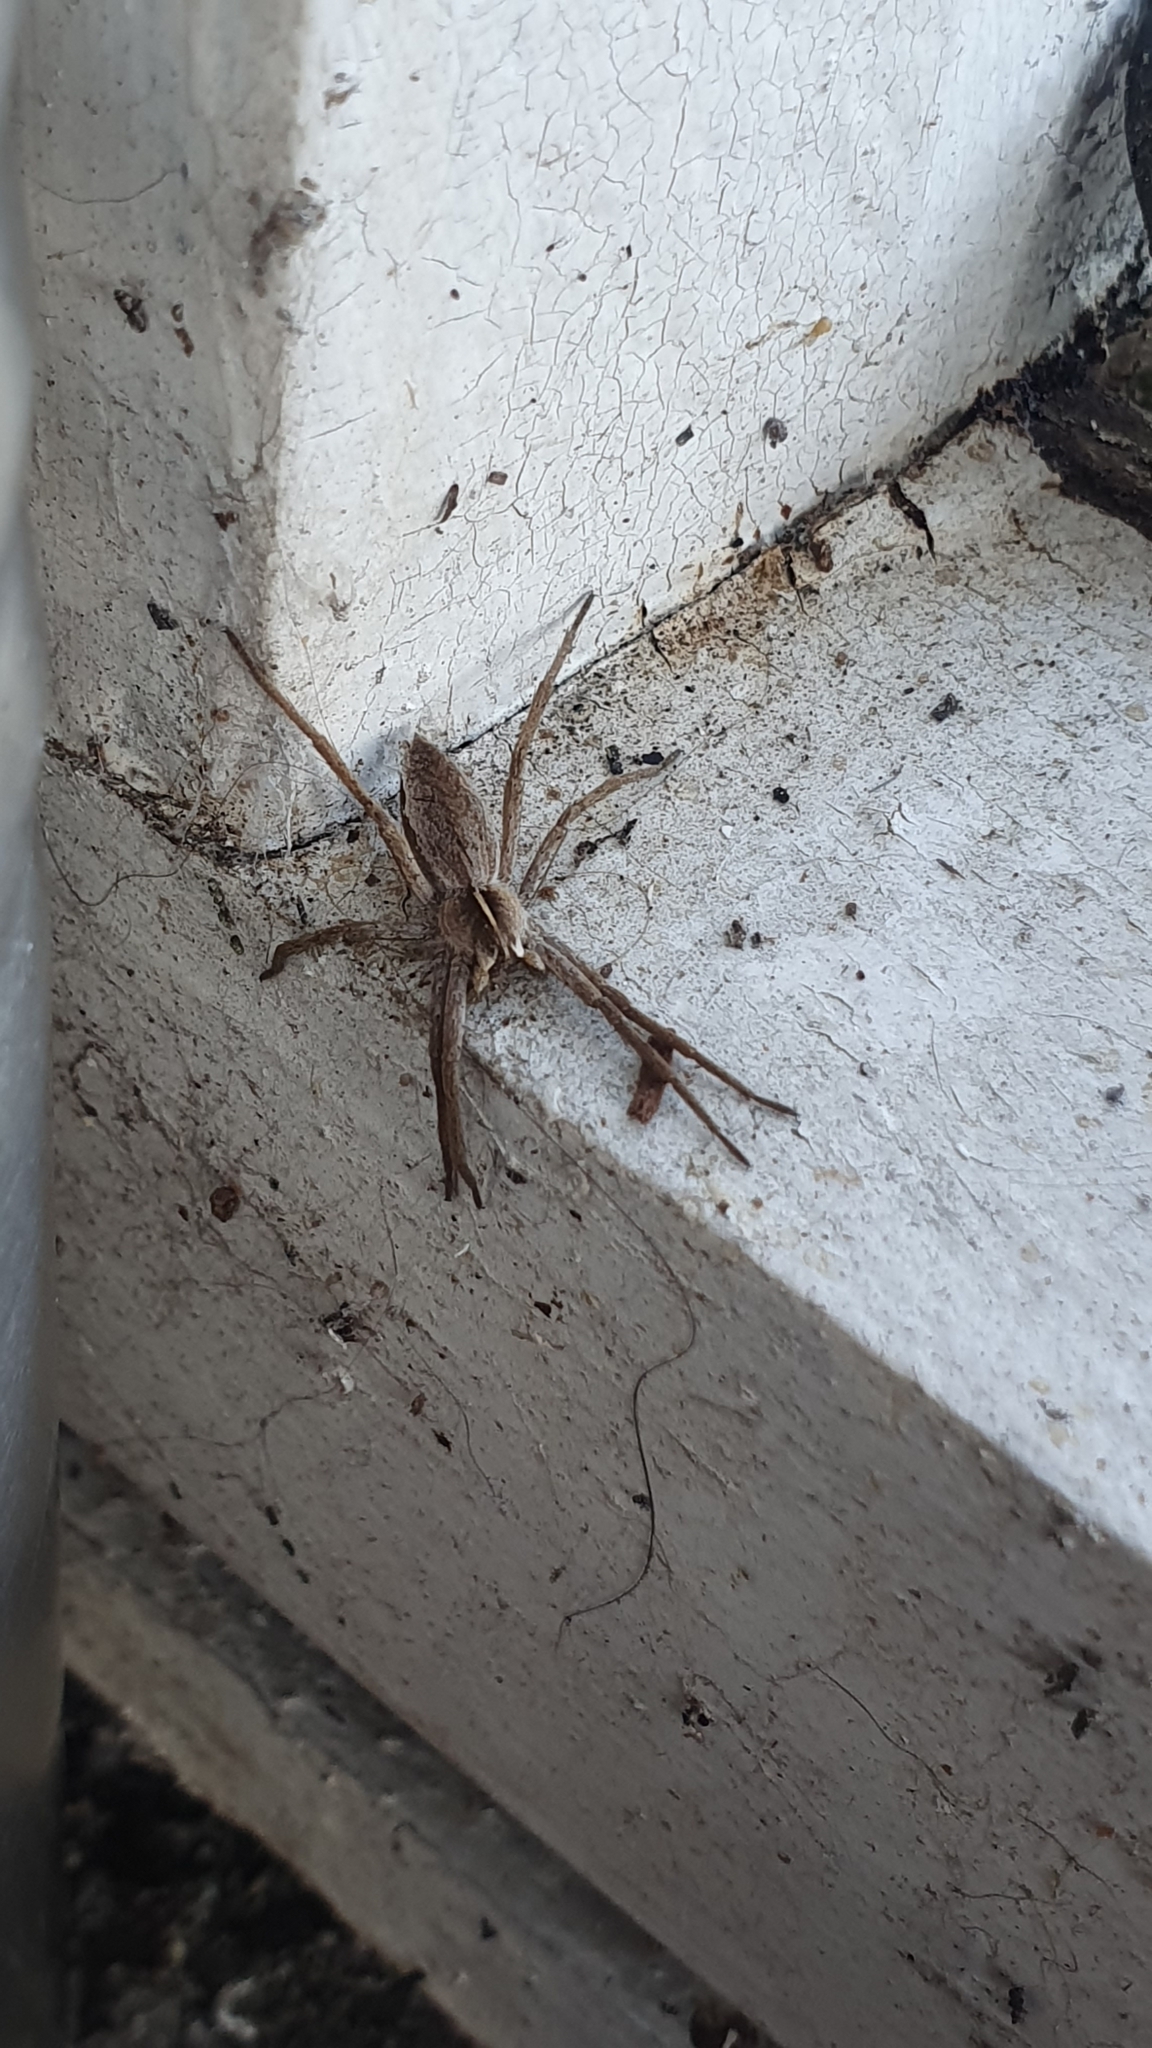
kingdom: Animalia
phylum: Arthropoda
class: Arachnida
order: Araneae
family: Pisauridae
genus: Pisaura
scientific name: Pisaura mirabilis
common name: Tent spider
